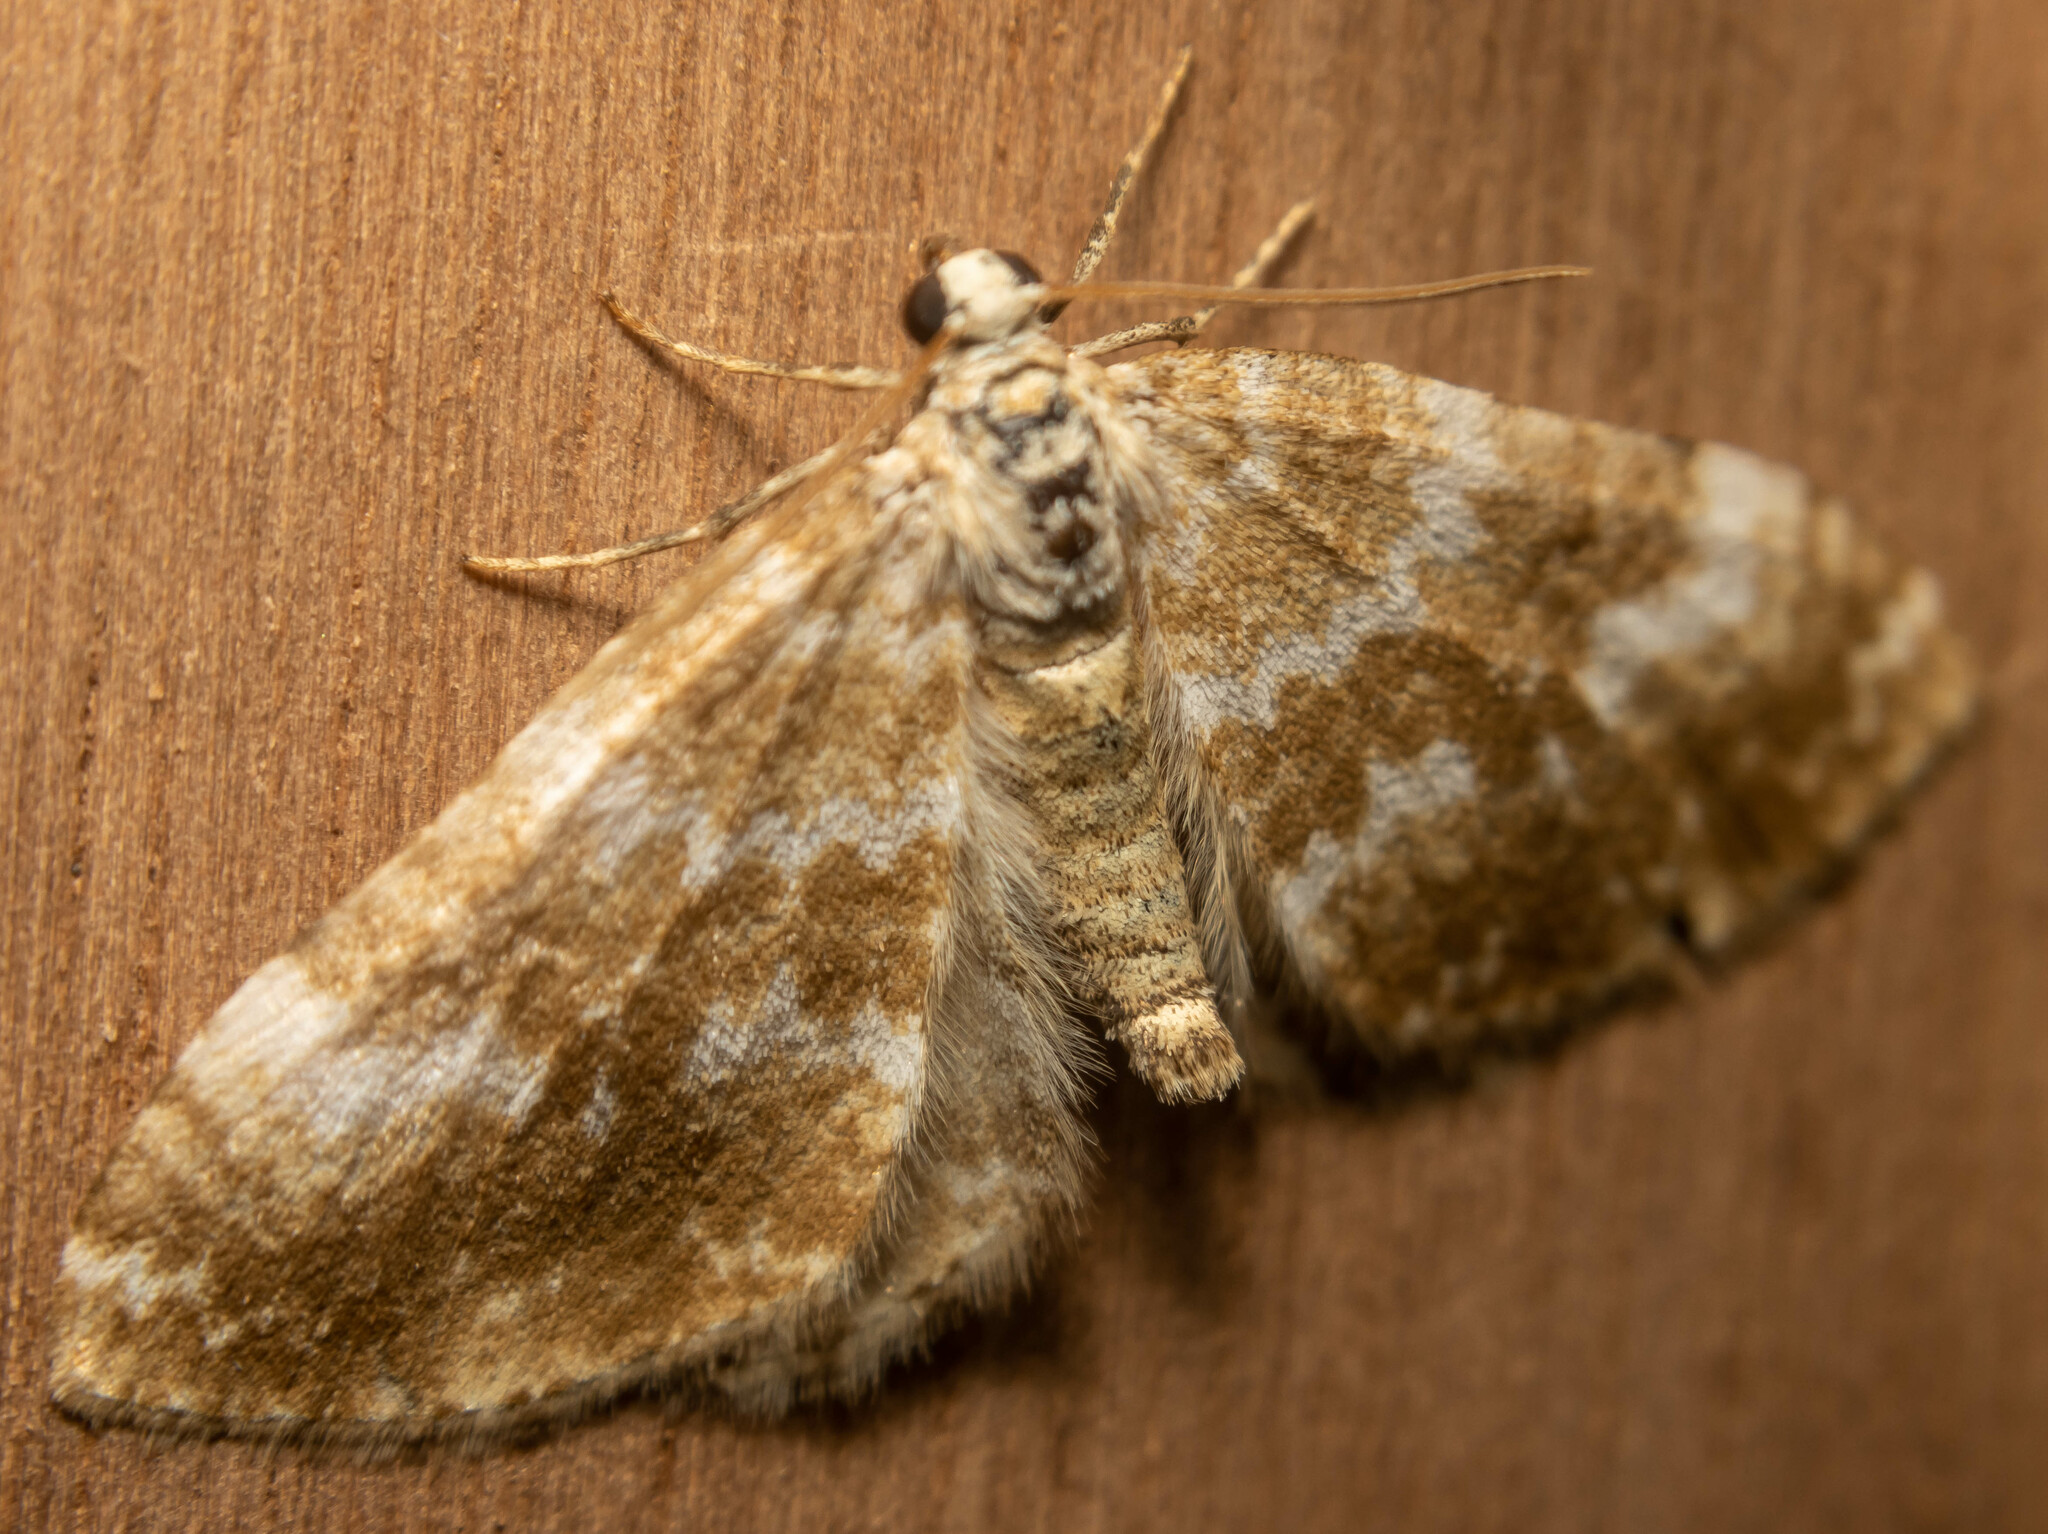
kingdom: Animalia
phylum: Arthropoda
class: Insecta
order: Lepidoptera
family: Geometridae
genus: Perizoma
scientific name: Perizoma flavofasciata
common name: Sandy carpet
